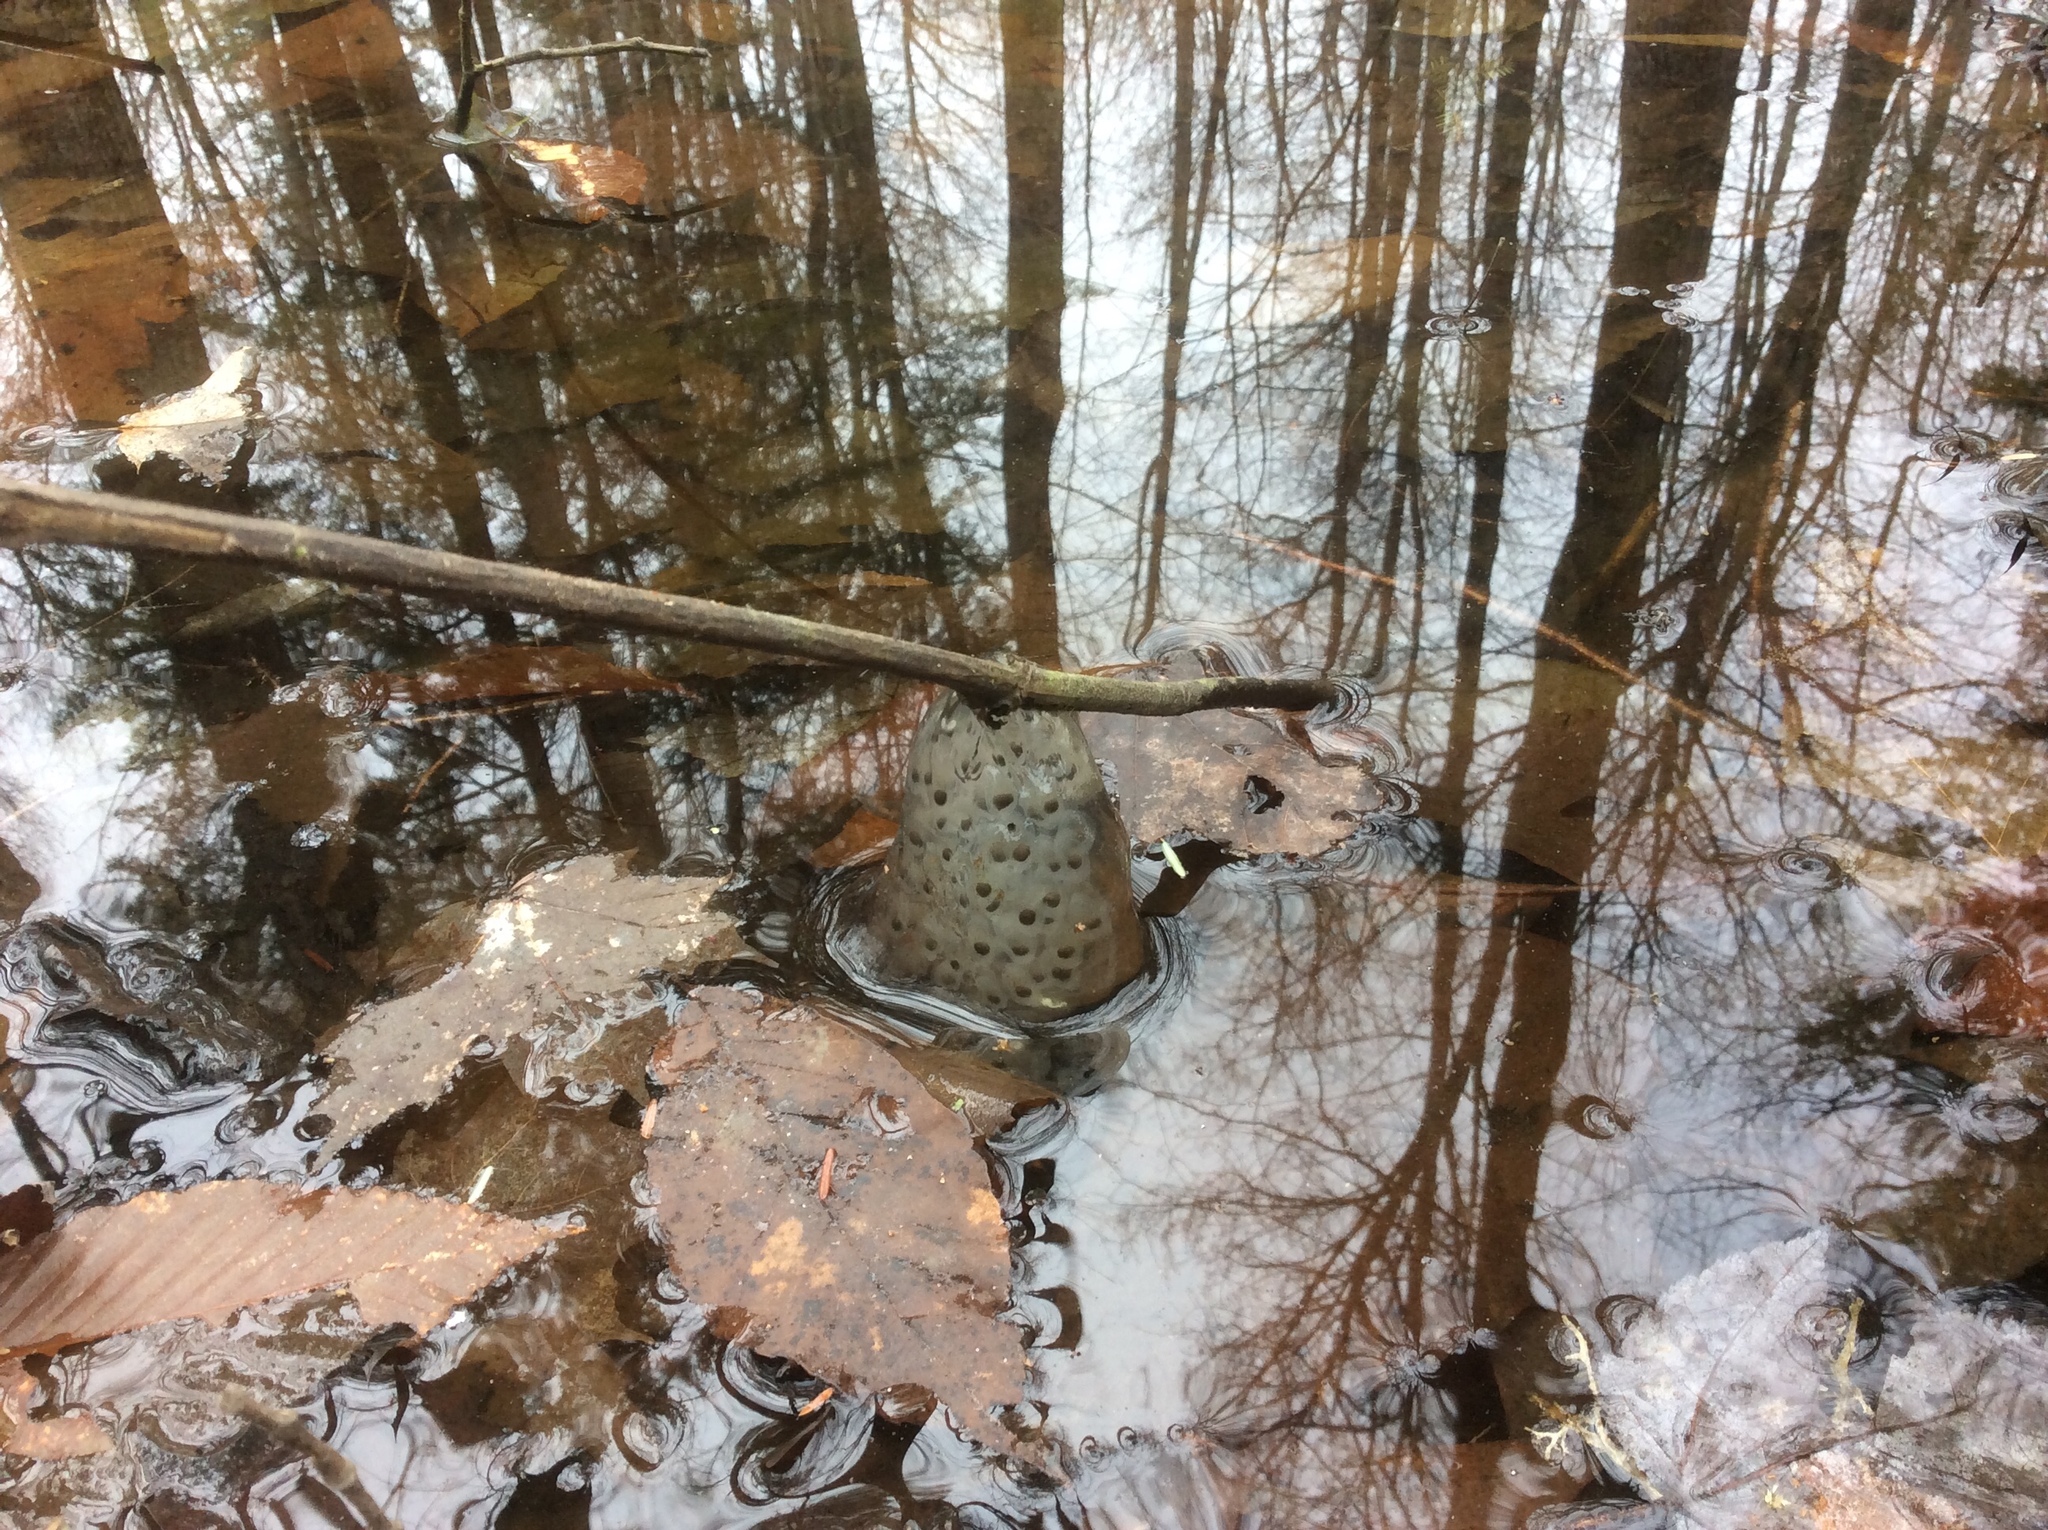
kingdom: Animalia
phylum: Chordata
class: Amphibia
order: Caudata
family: Ambystomatidae
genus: Ambystoma
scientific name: Ambystoma maculatum
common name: Spotted salamander
